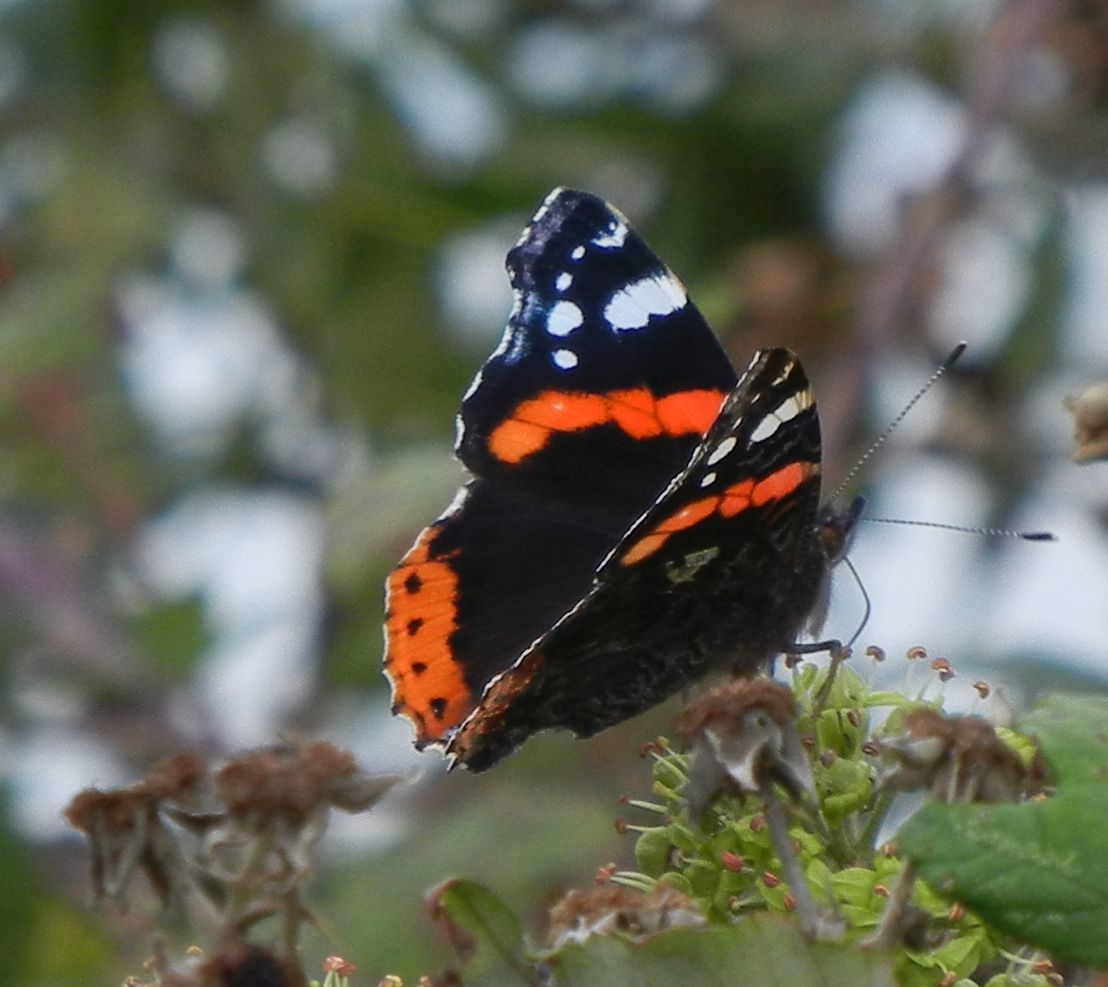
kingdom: Animalia
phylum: Arthropoda
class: Insecta
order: Lepidoptera
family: Nymphalidae
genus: Vanessa
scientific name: Vanessa atalanta
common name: Red admiral
